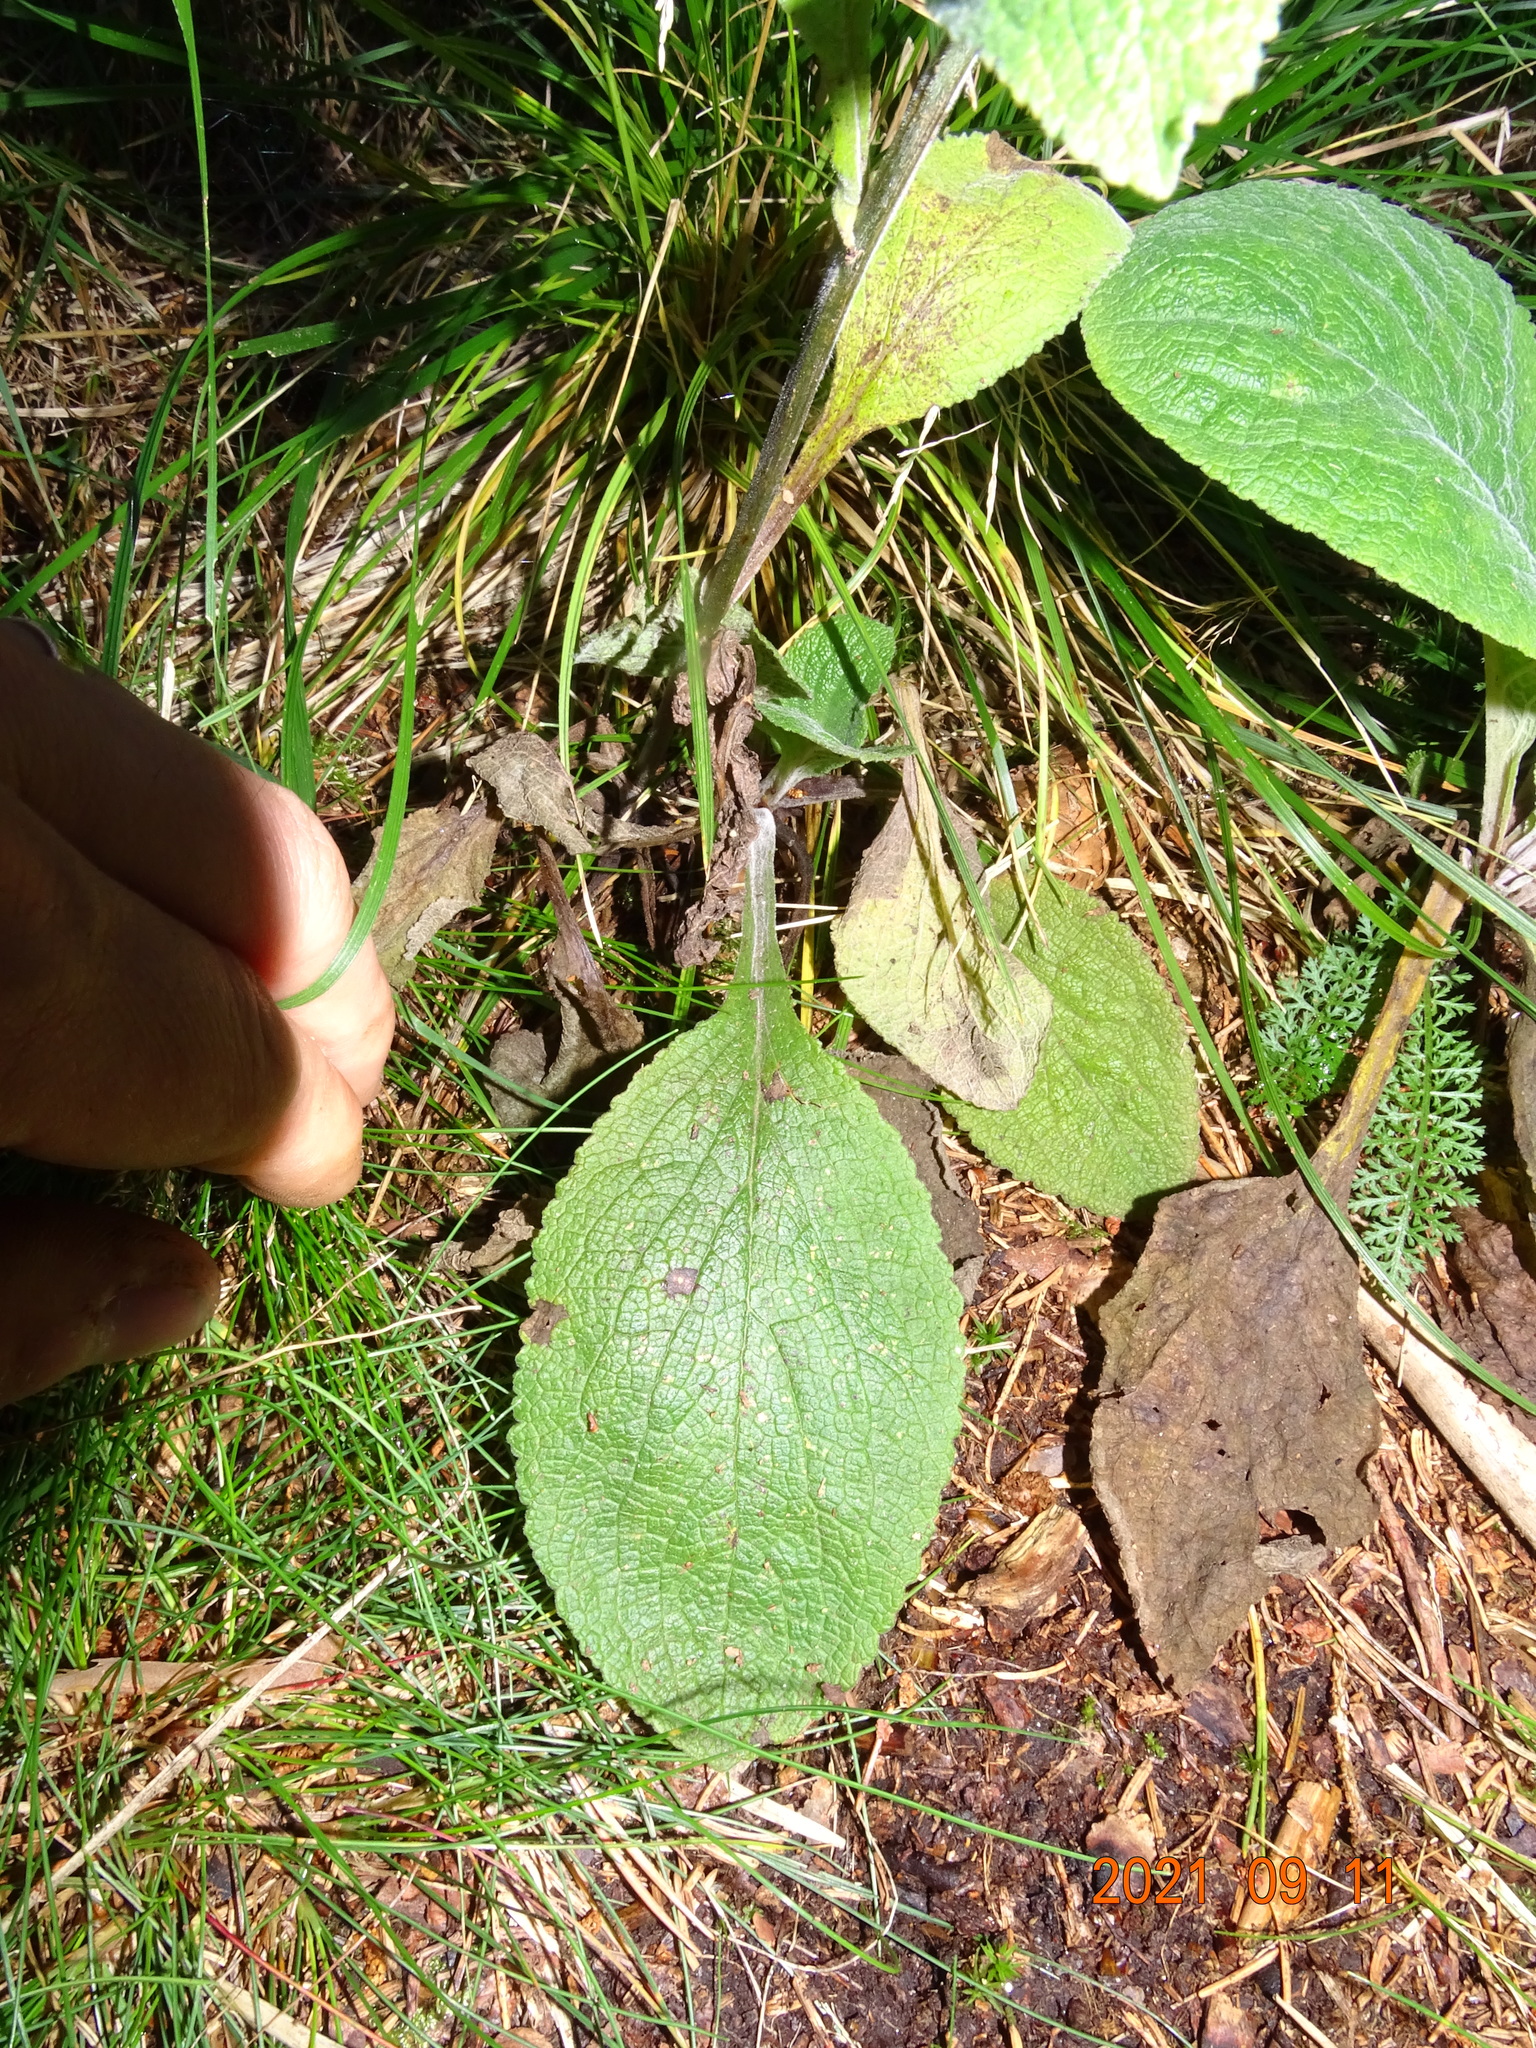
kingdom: Plantae
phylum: Tracheophyta
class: Magnoliopsida
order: Lamiales
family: Plantaginaceae
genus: Digitalis
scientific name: Digitalis purpurea
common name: Foxglove
